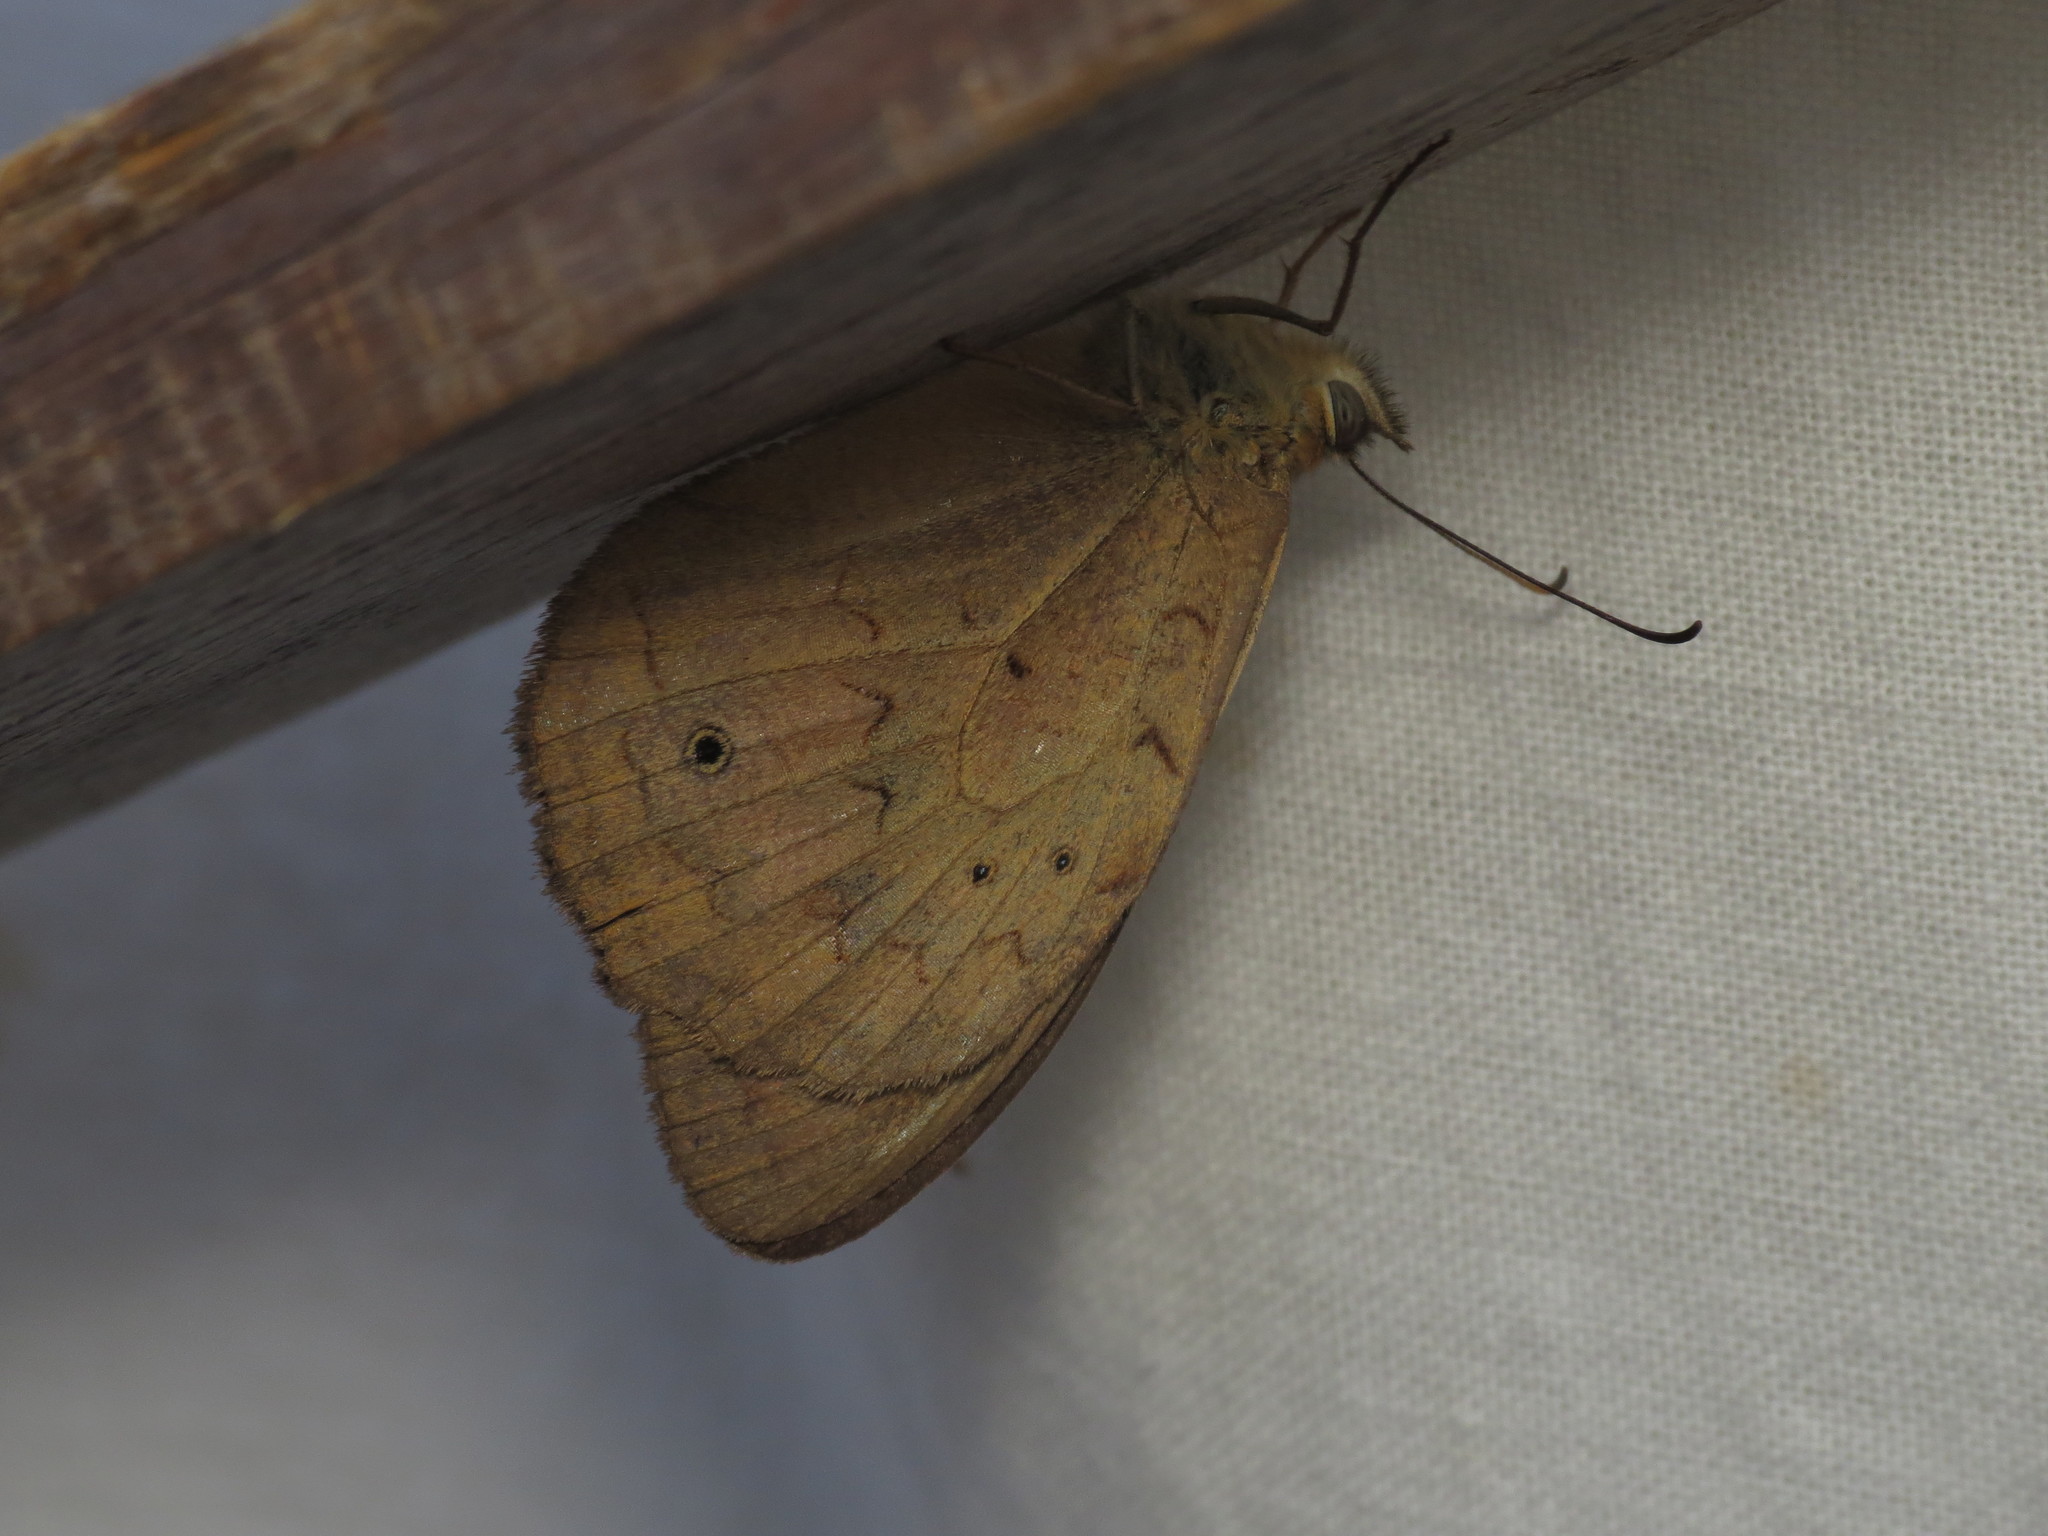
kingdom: Animalia
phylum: Arthropoda
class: Insecta
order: Lepidoptera
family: Nymphalidae
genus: Heteronympha
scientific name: Heteronympha merope
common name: Common brown
